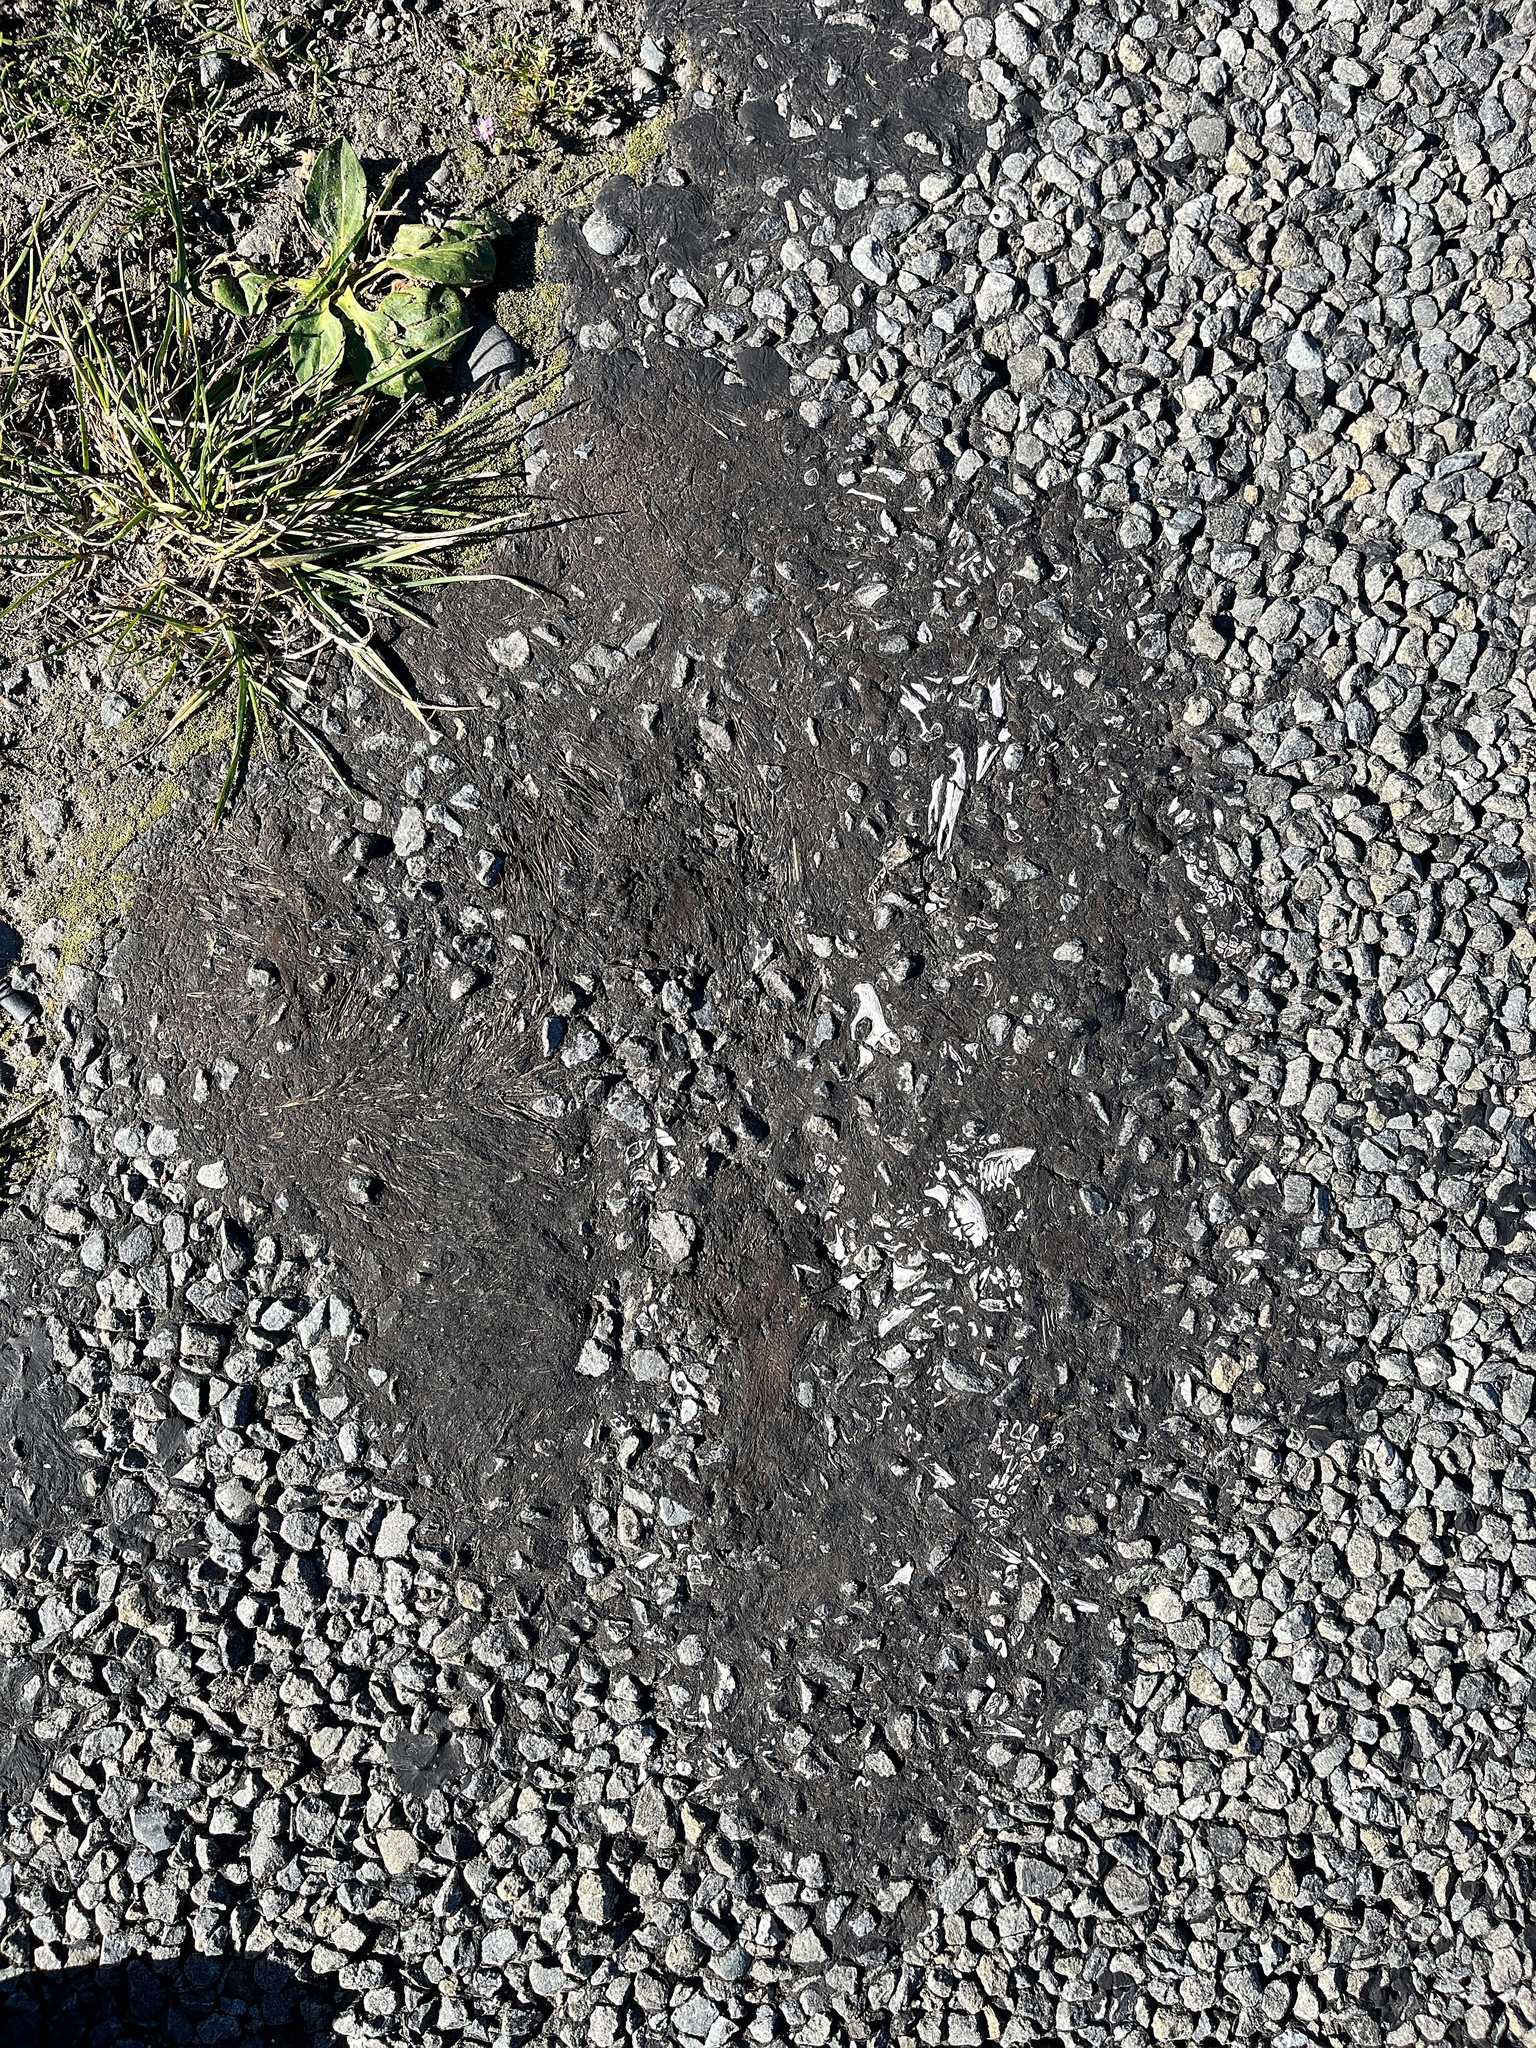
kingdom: Animalia
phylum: Chordata
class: Mammalia
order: Erinaceomorpha
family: Erinaceidae
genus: Erinaceus
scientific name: Erinaceus europaeus
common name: West european hedgehog
